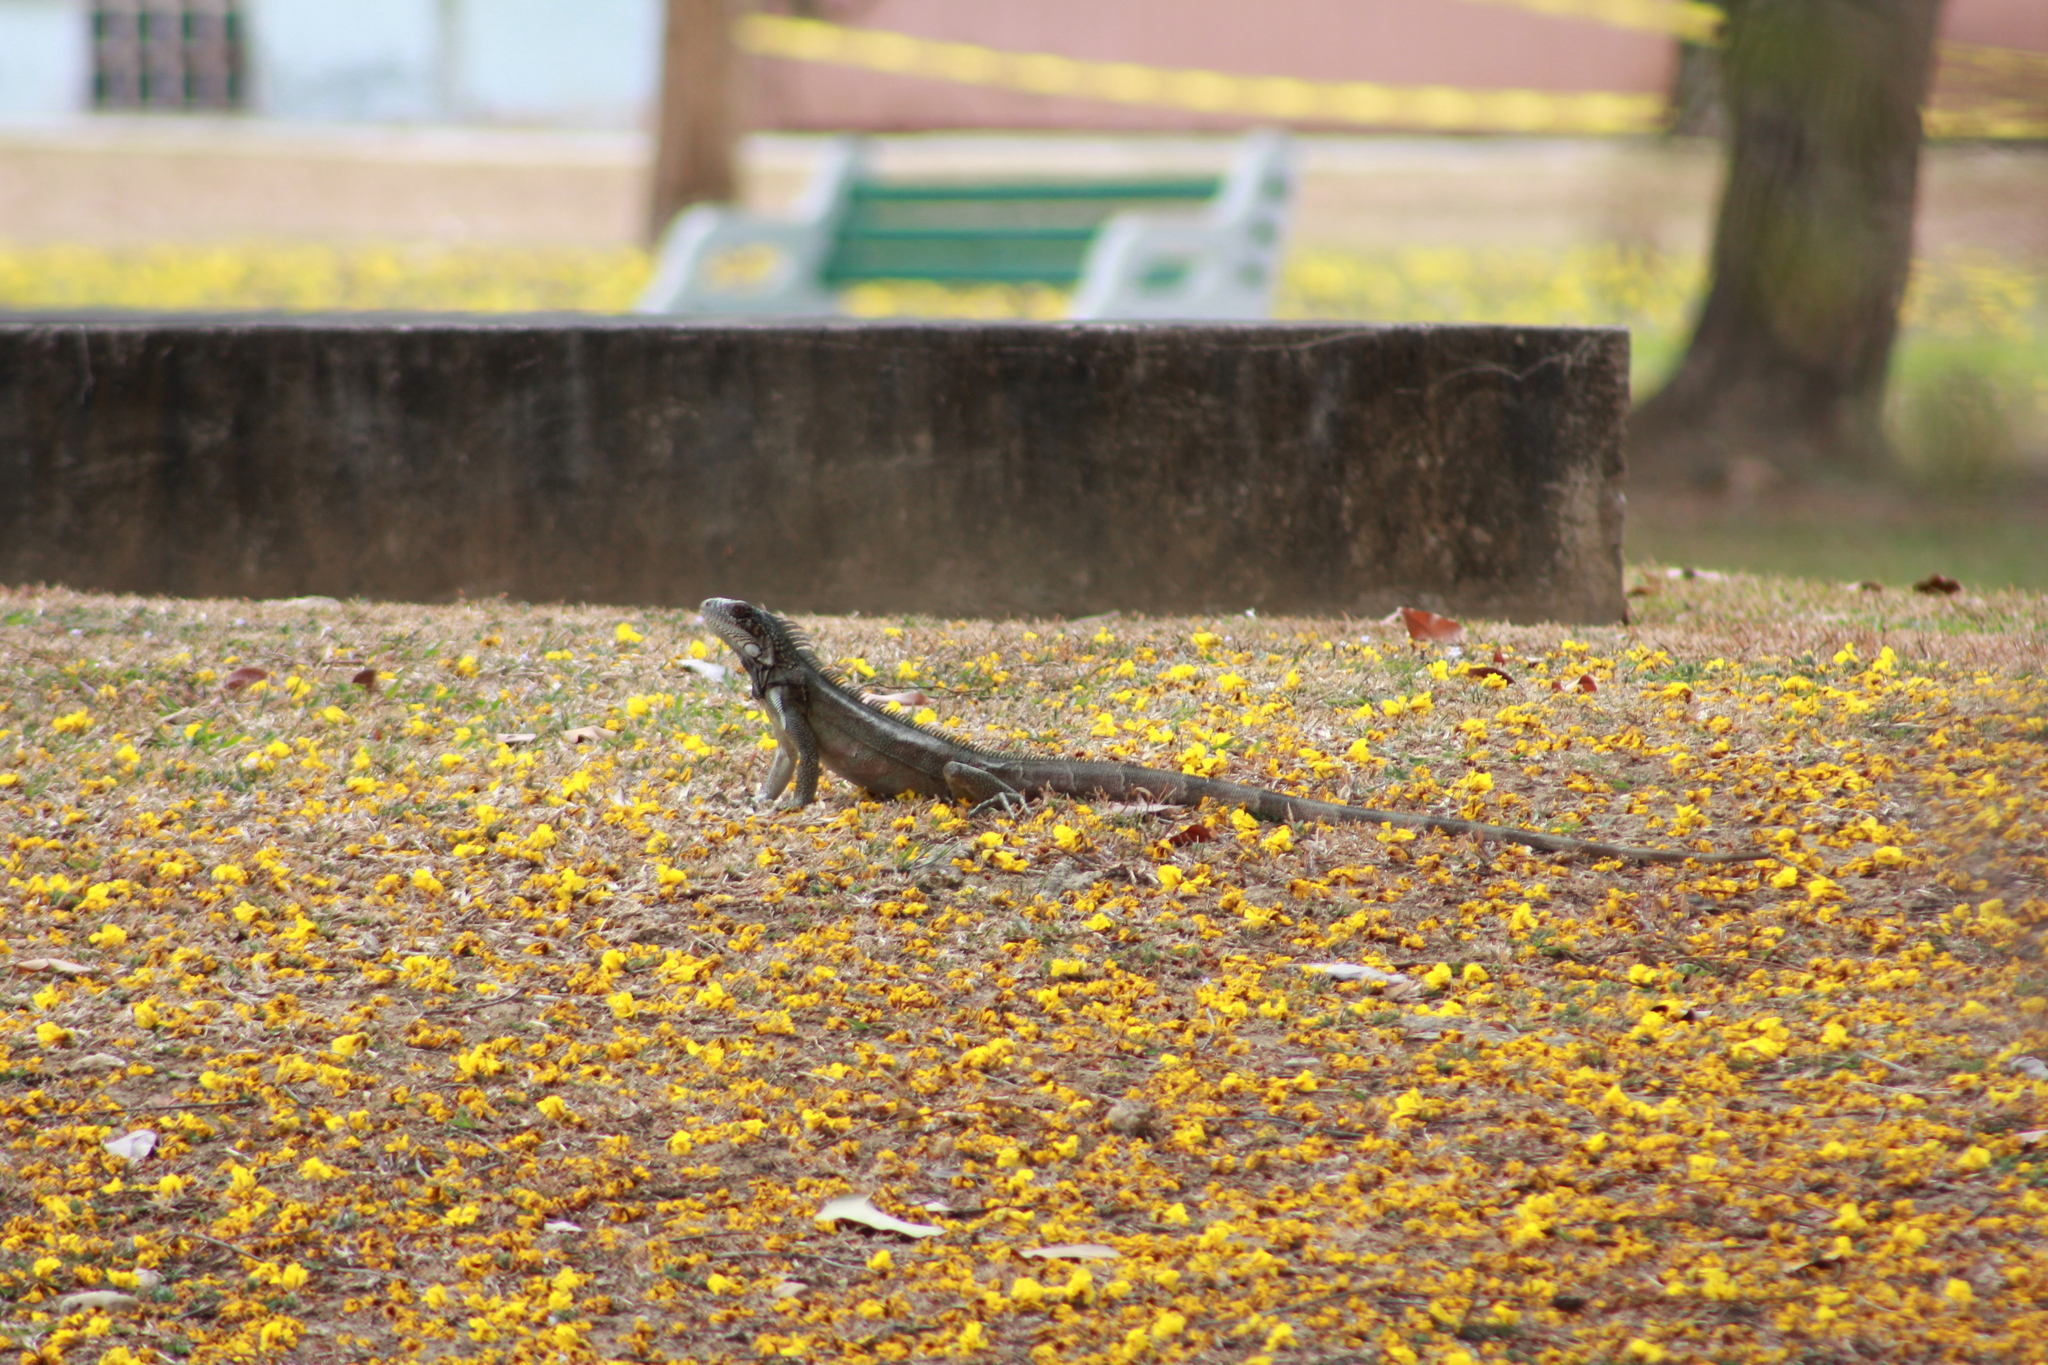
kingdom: Animalia
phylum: Chordata
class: Squamata
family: Iguanidae
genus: Iguana
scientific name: Iguana iguana
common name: Green iguana
